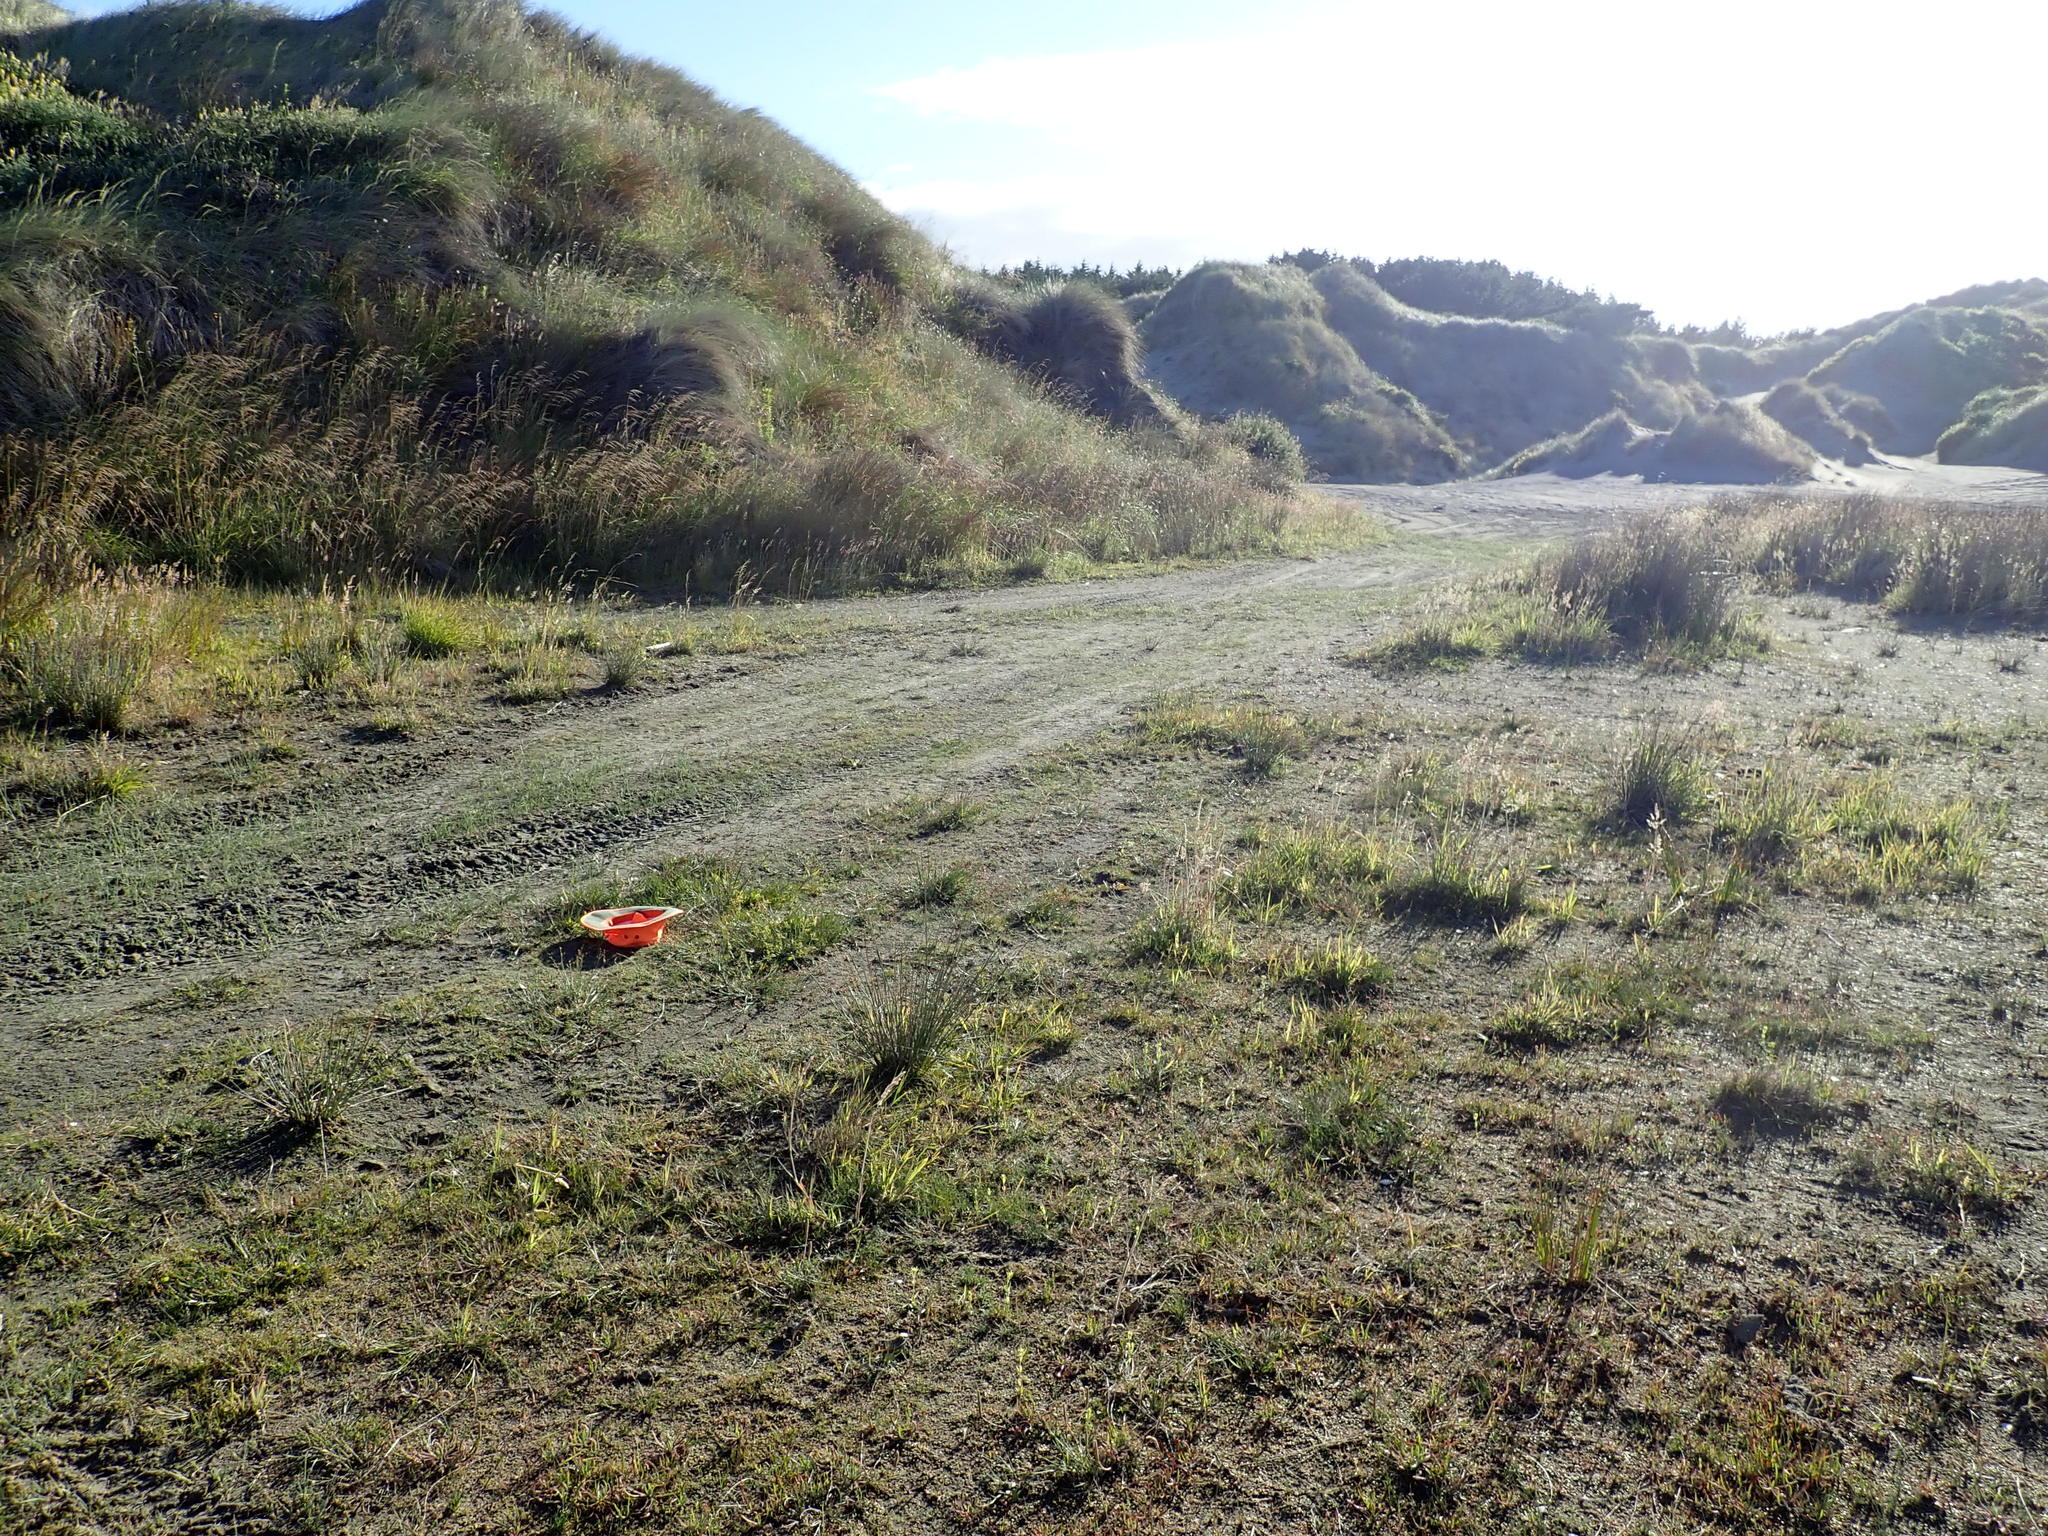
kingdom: Plantae
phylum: Tracheophyta
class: Liliopsida
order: Poales
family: Juncaceae
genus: Juncus
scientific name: Juncus articulatus
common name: Jointed rush
